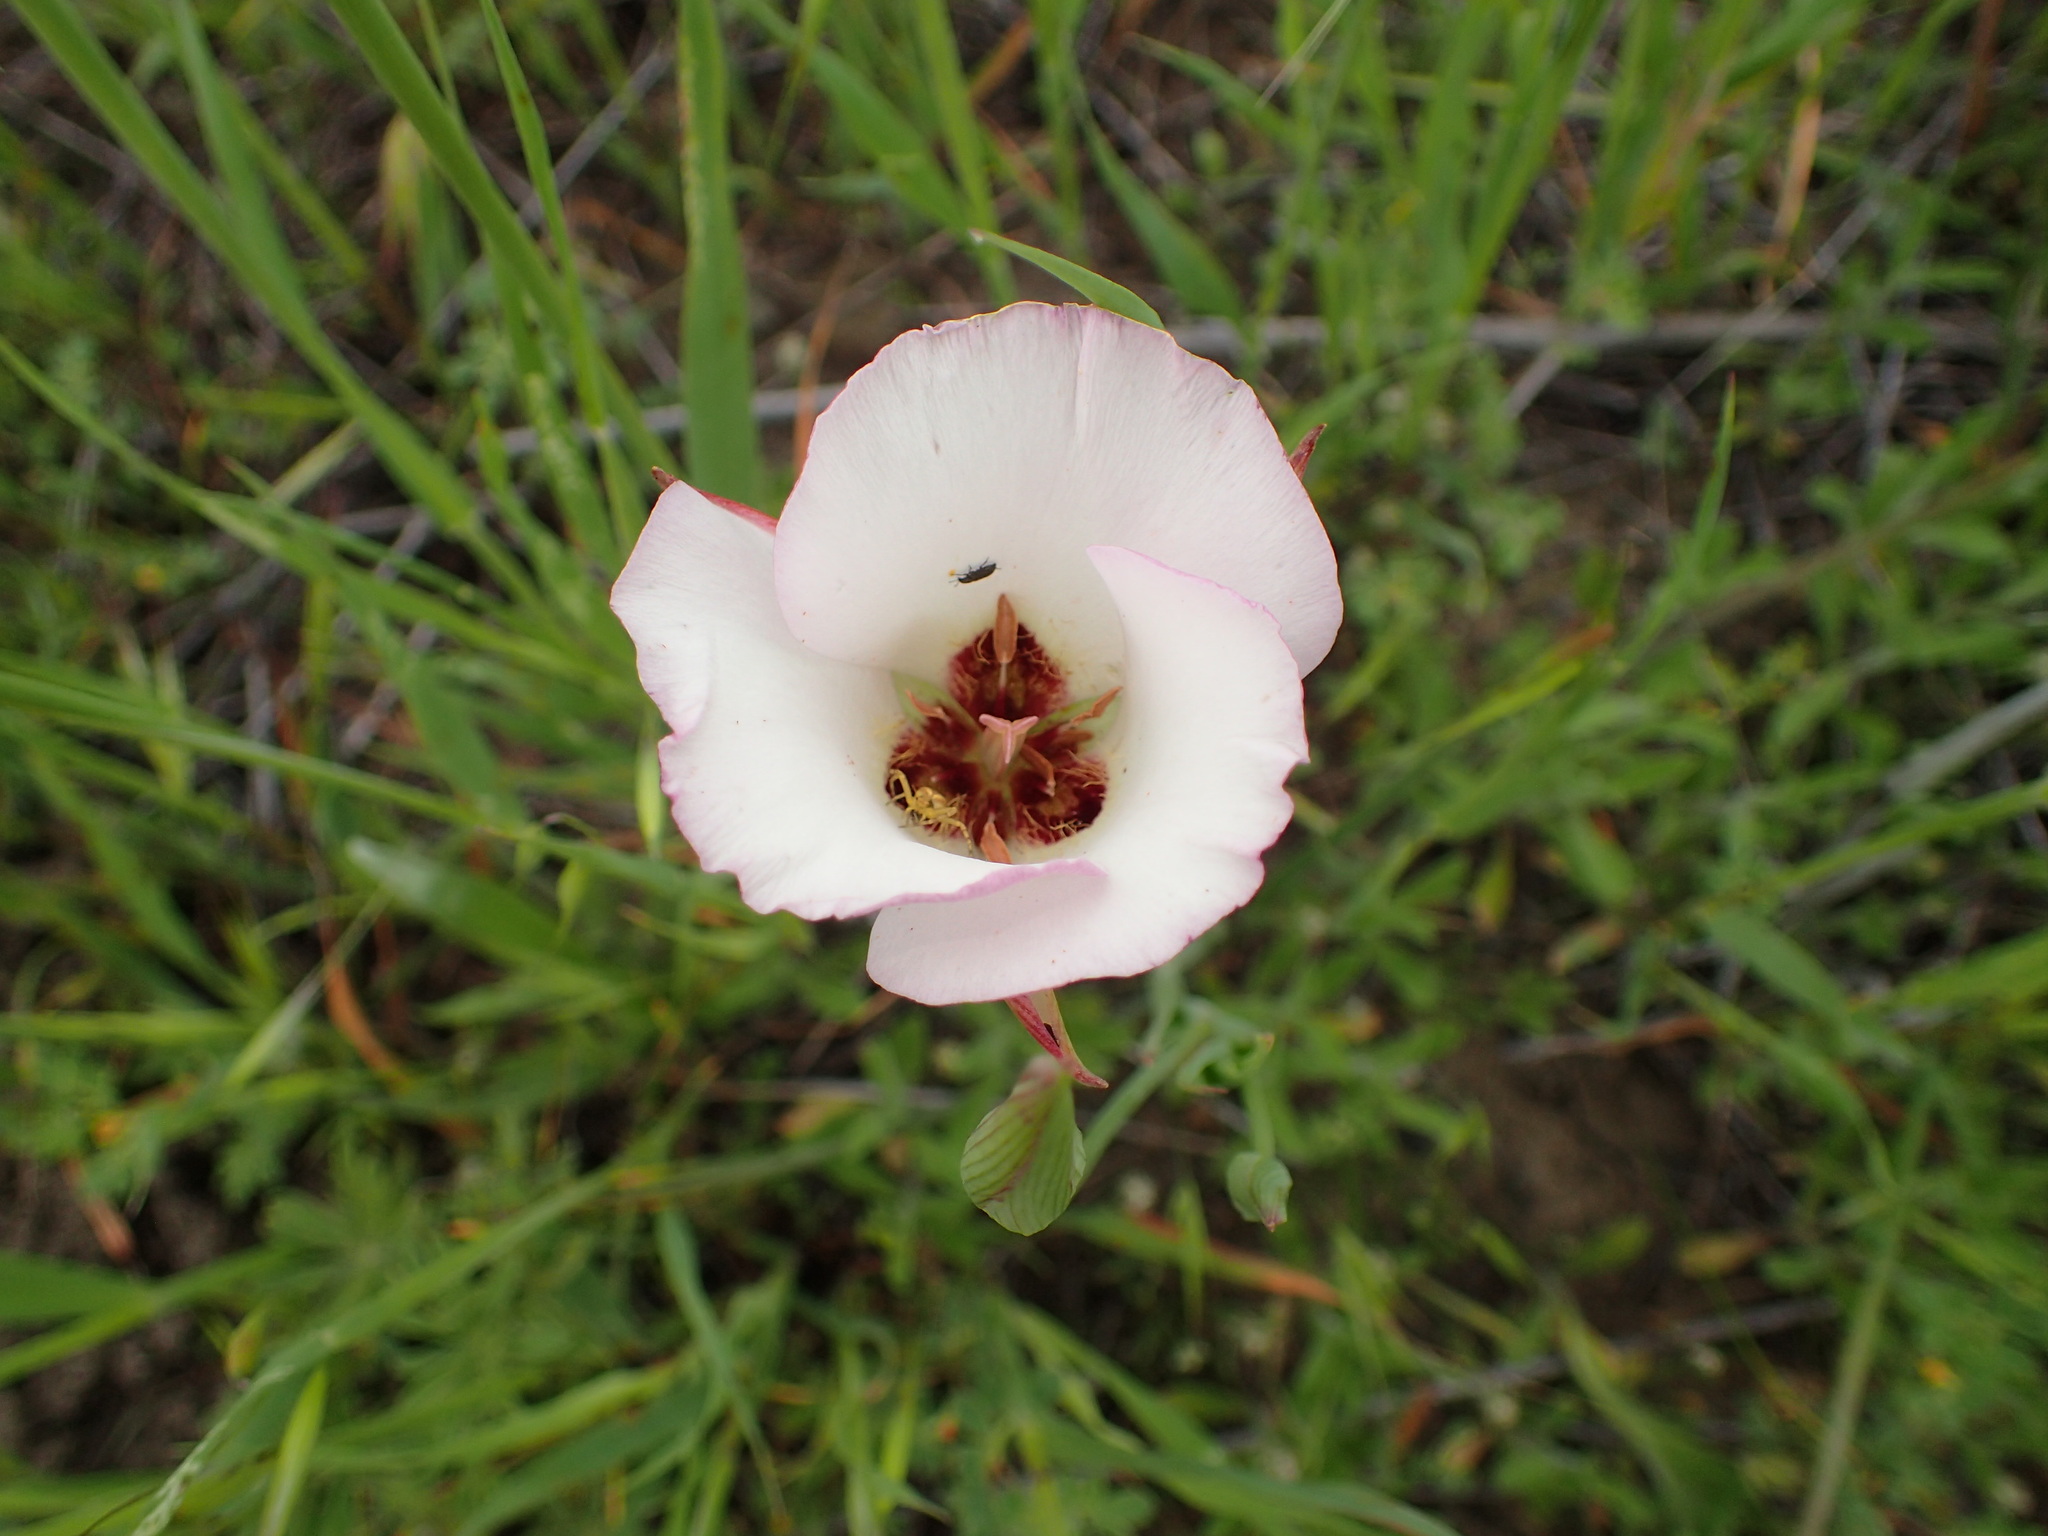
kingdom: Plantae
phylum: Tracheophyta
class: Liliopsida
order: Liliales
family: Liliaceae
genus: Calochortus
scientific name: Calochortus catalinae
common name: Catalina mariposa-lily
